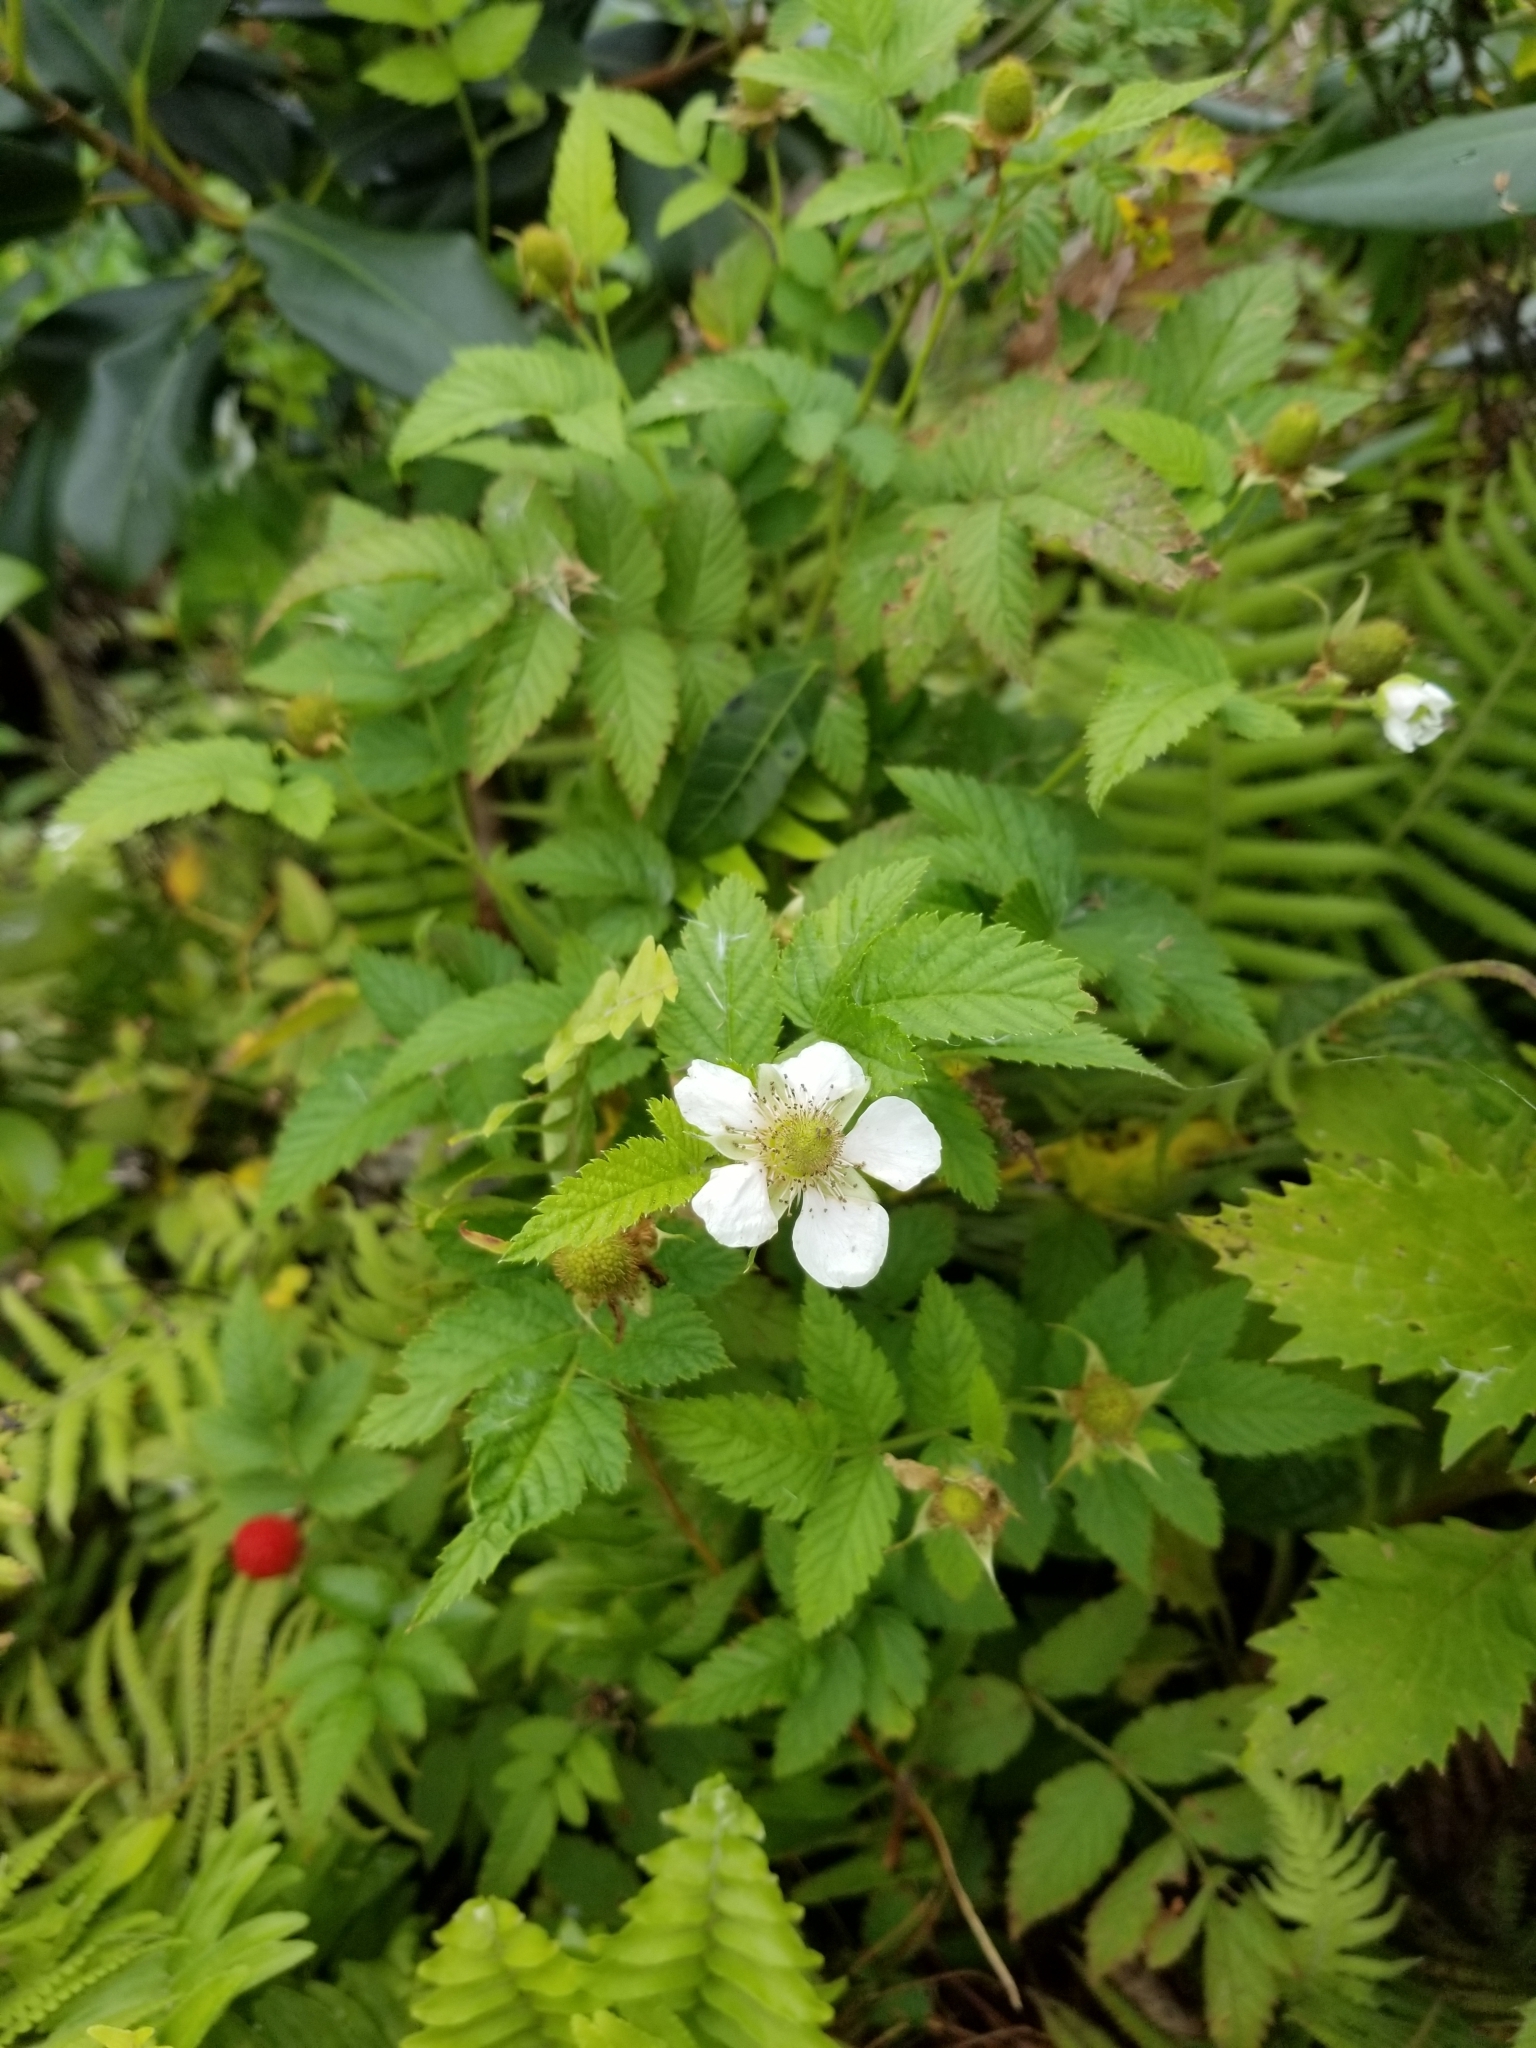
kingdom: Plantae
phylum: Tracheophyta
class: Magnoliopsida
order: Rosales
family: Rosaceae
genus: Rubus
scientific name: Rubus rosifolius
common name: Roseleaf raspberry
